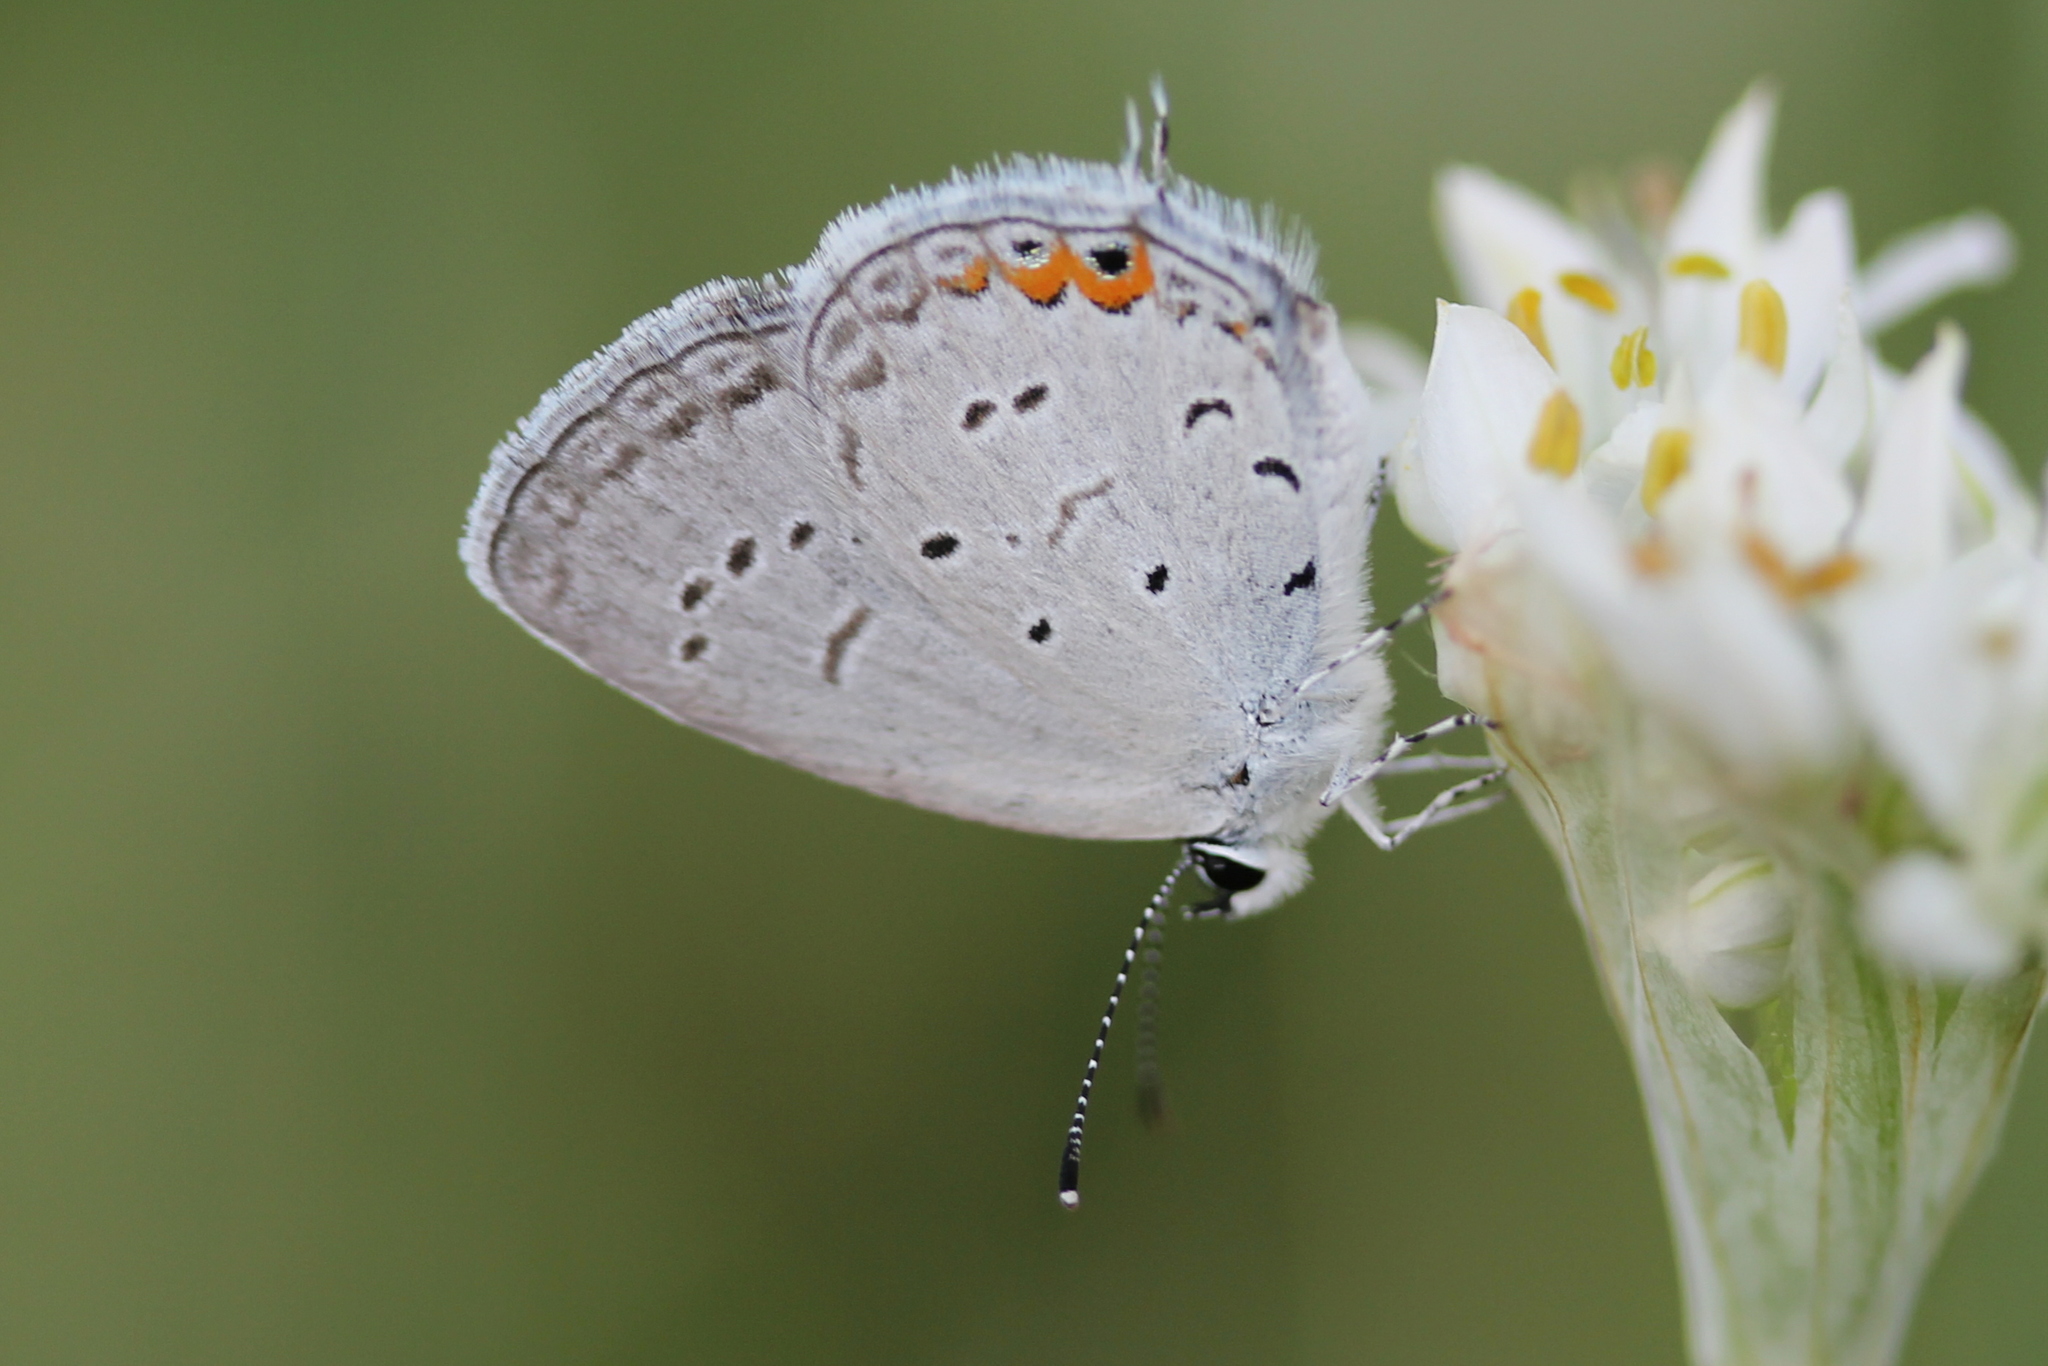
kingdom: Animalia
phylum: Arthropoda
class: Insecta
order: Lepidoptera
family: Lycaenidae
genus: Elkalyce
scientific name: Elkalyce comyntas
